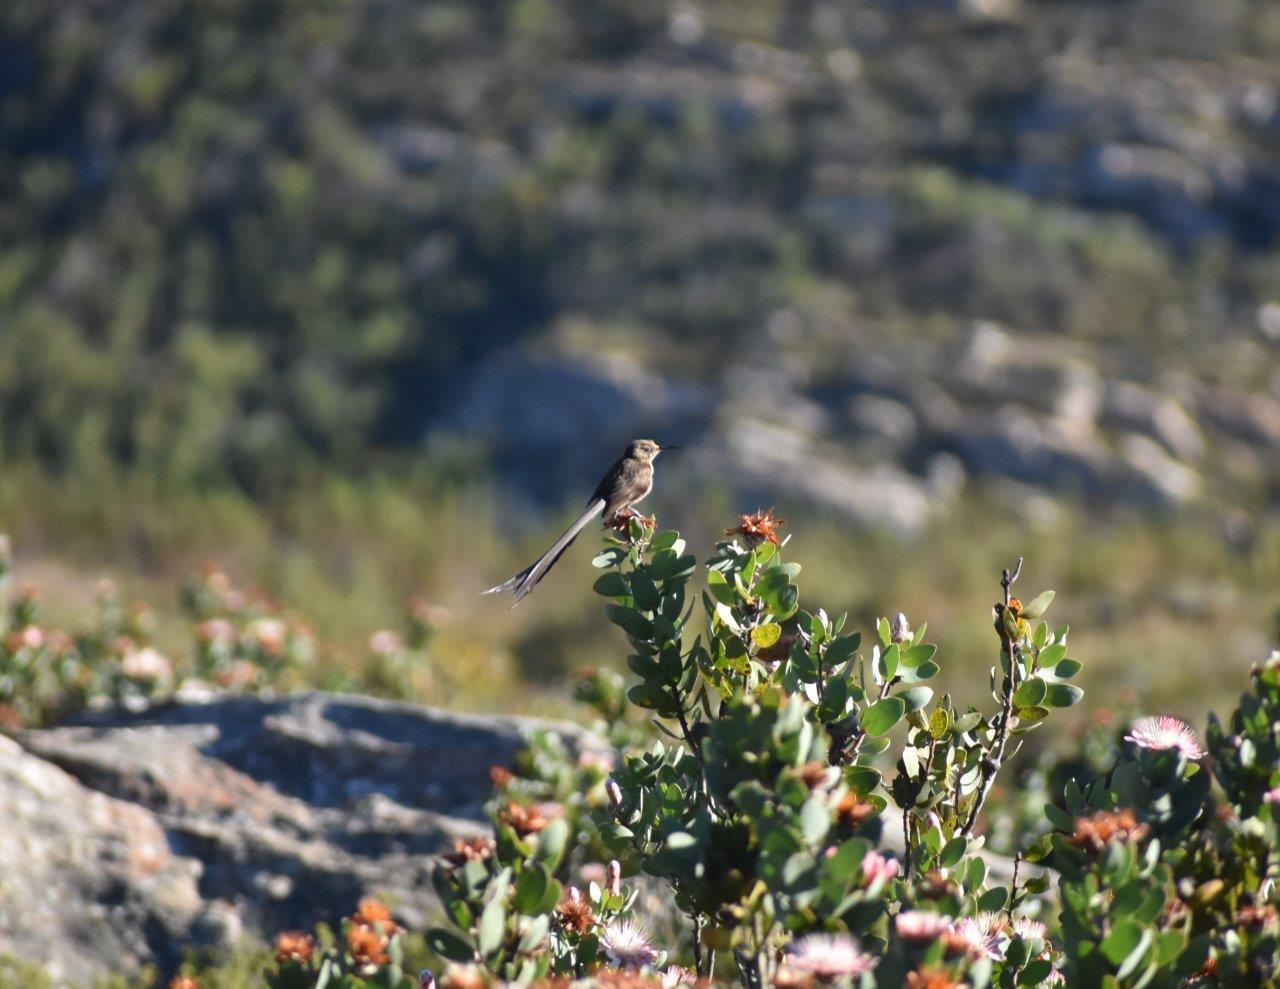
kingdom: Animalia
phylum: Chordata
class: Aves
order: Passeriformes
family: Promeropidae
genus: Promerops
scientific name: Promerops cafer
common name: Cape sugarbird
